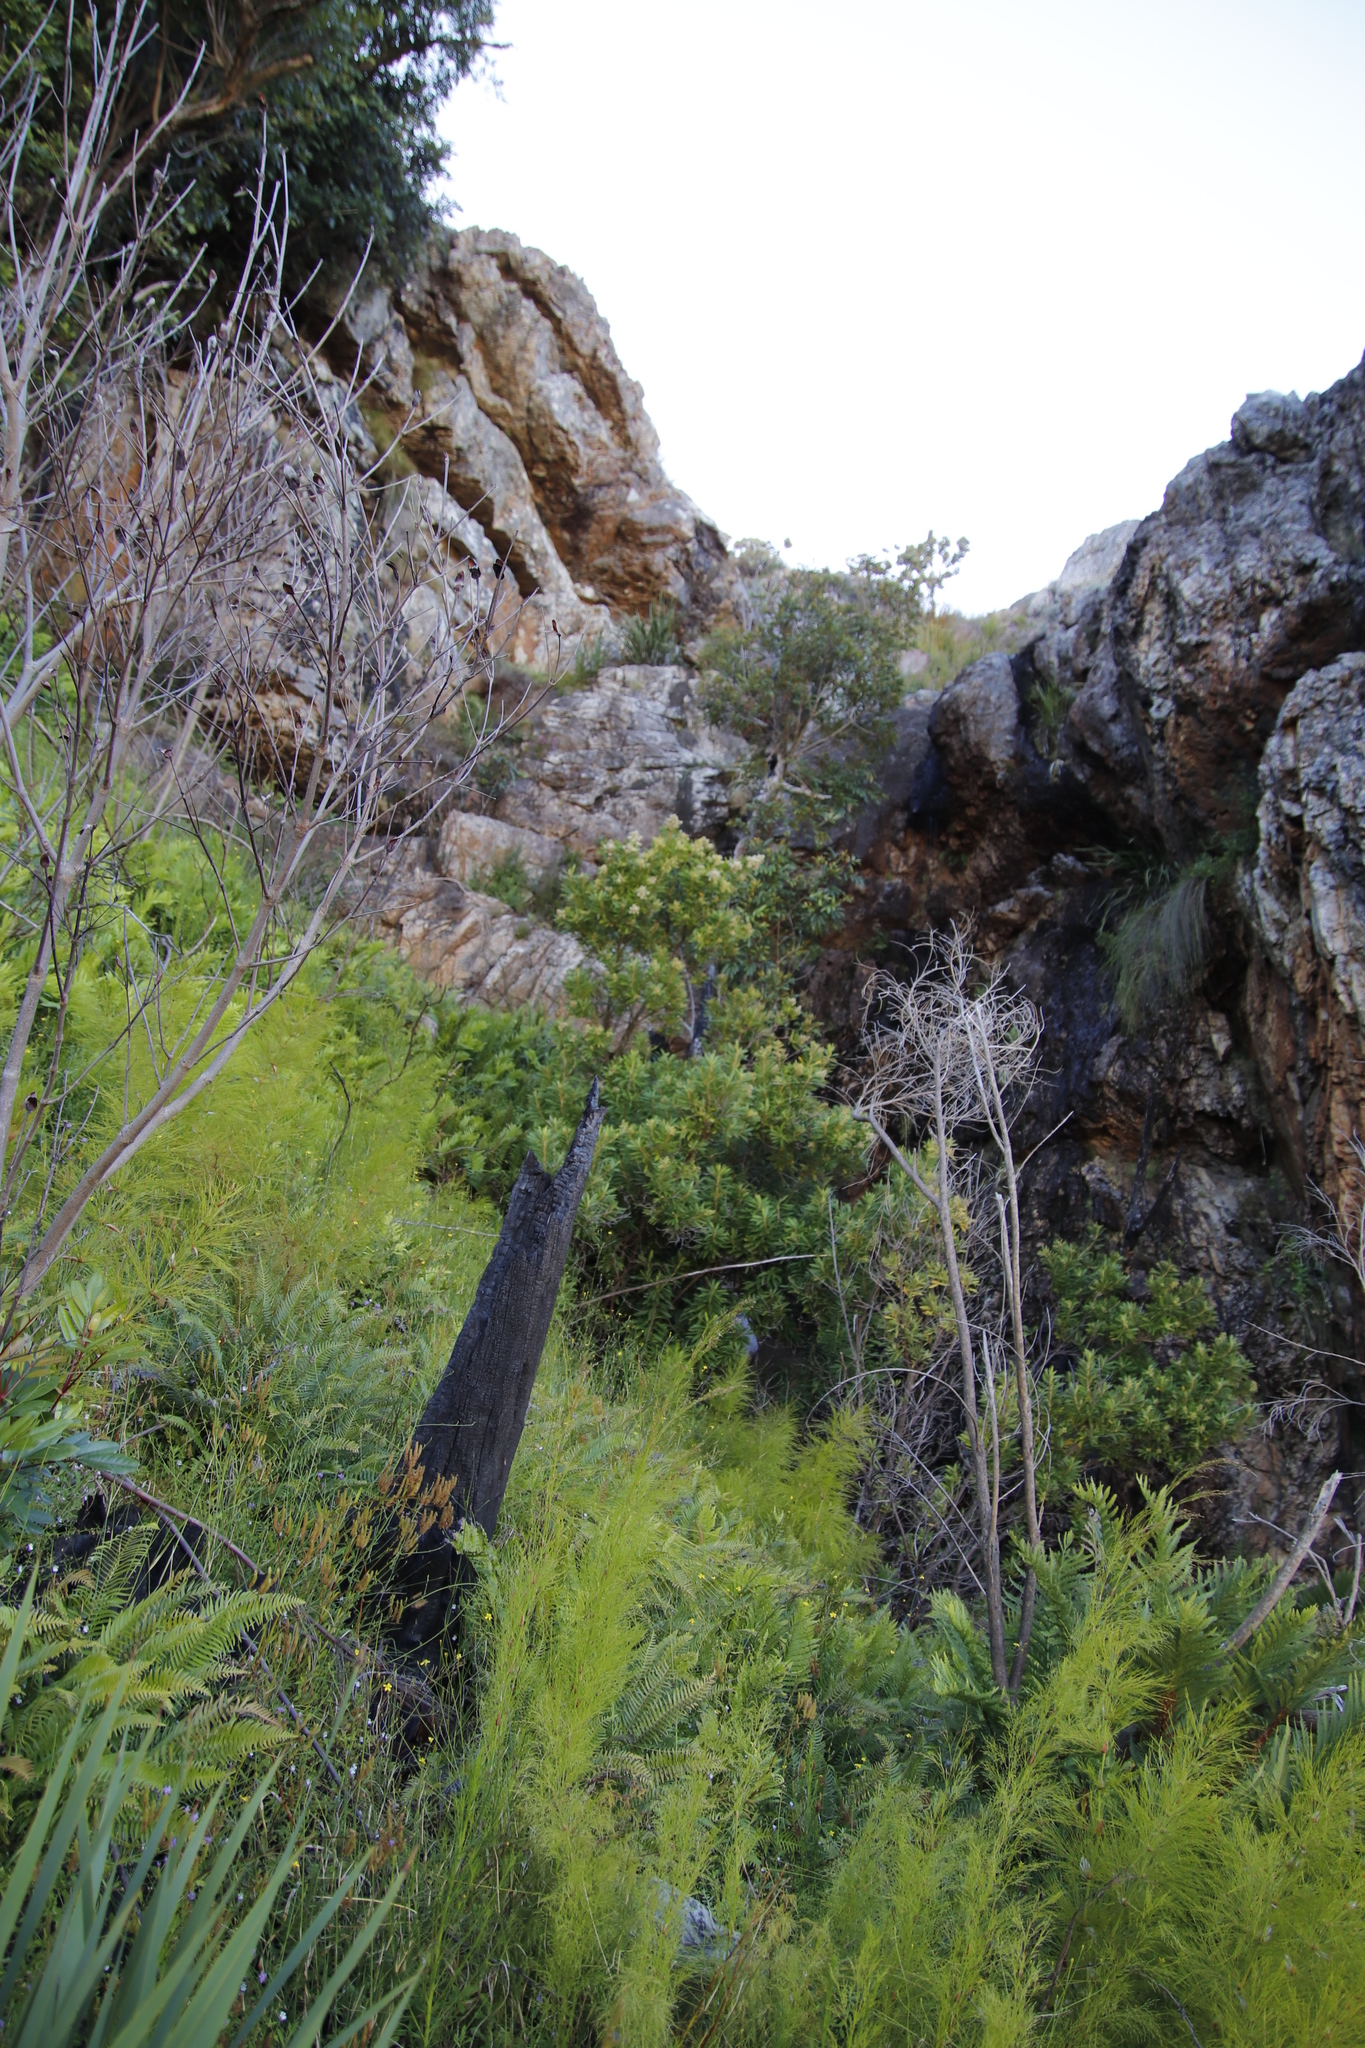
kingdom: Plantae
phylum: Tracheophyta
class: Magnoliopsida
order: Asterales
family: Asteraceae
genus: Brachylaena
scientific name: Brachylaena neriifolia
